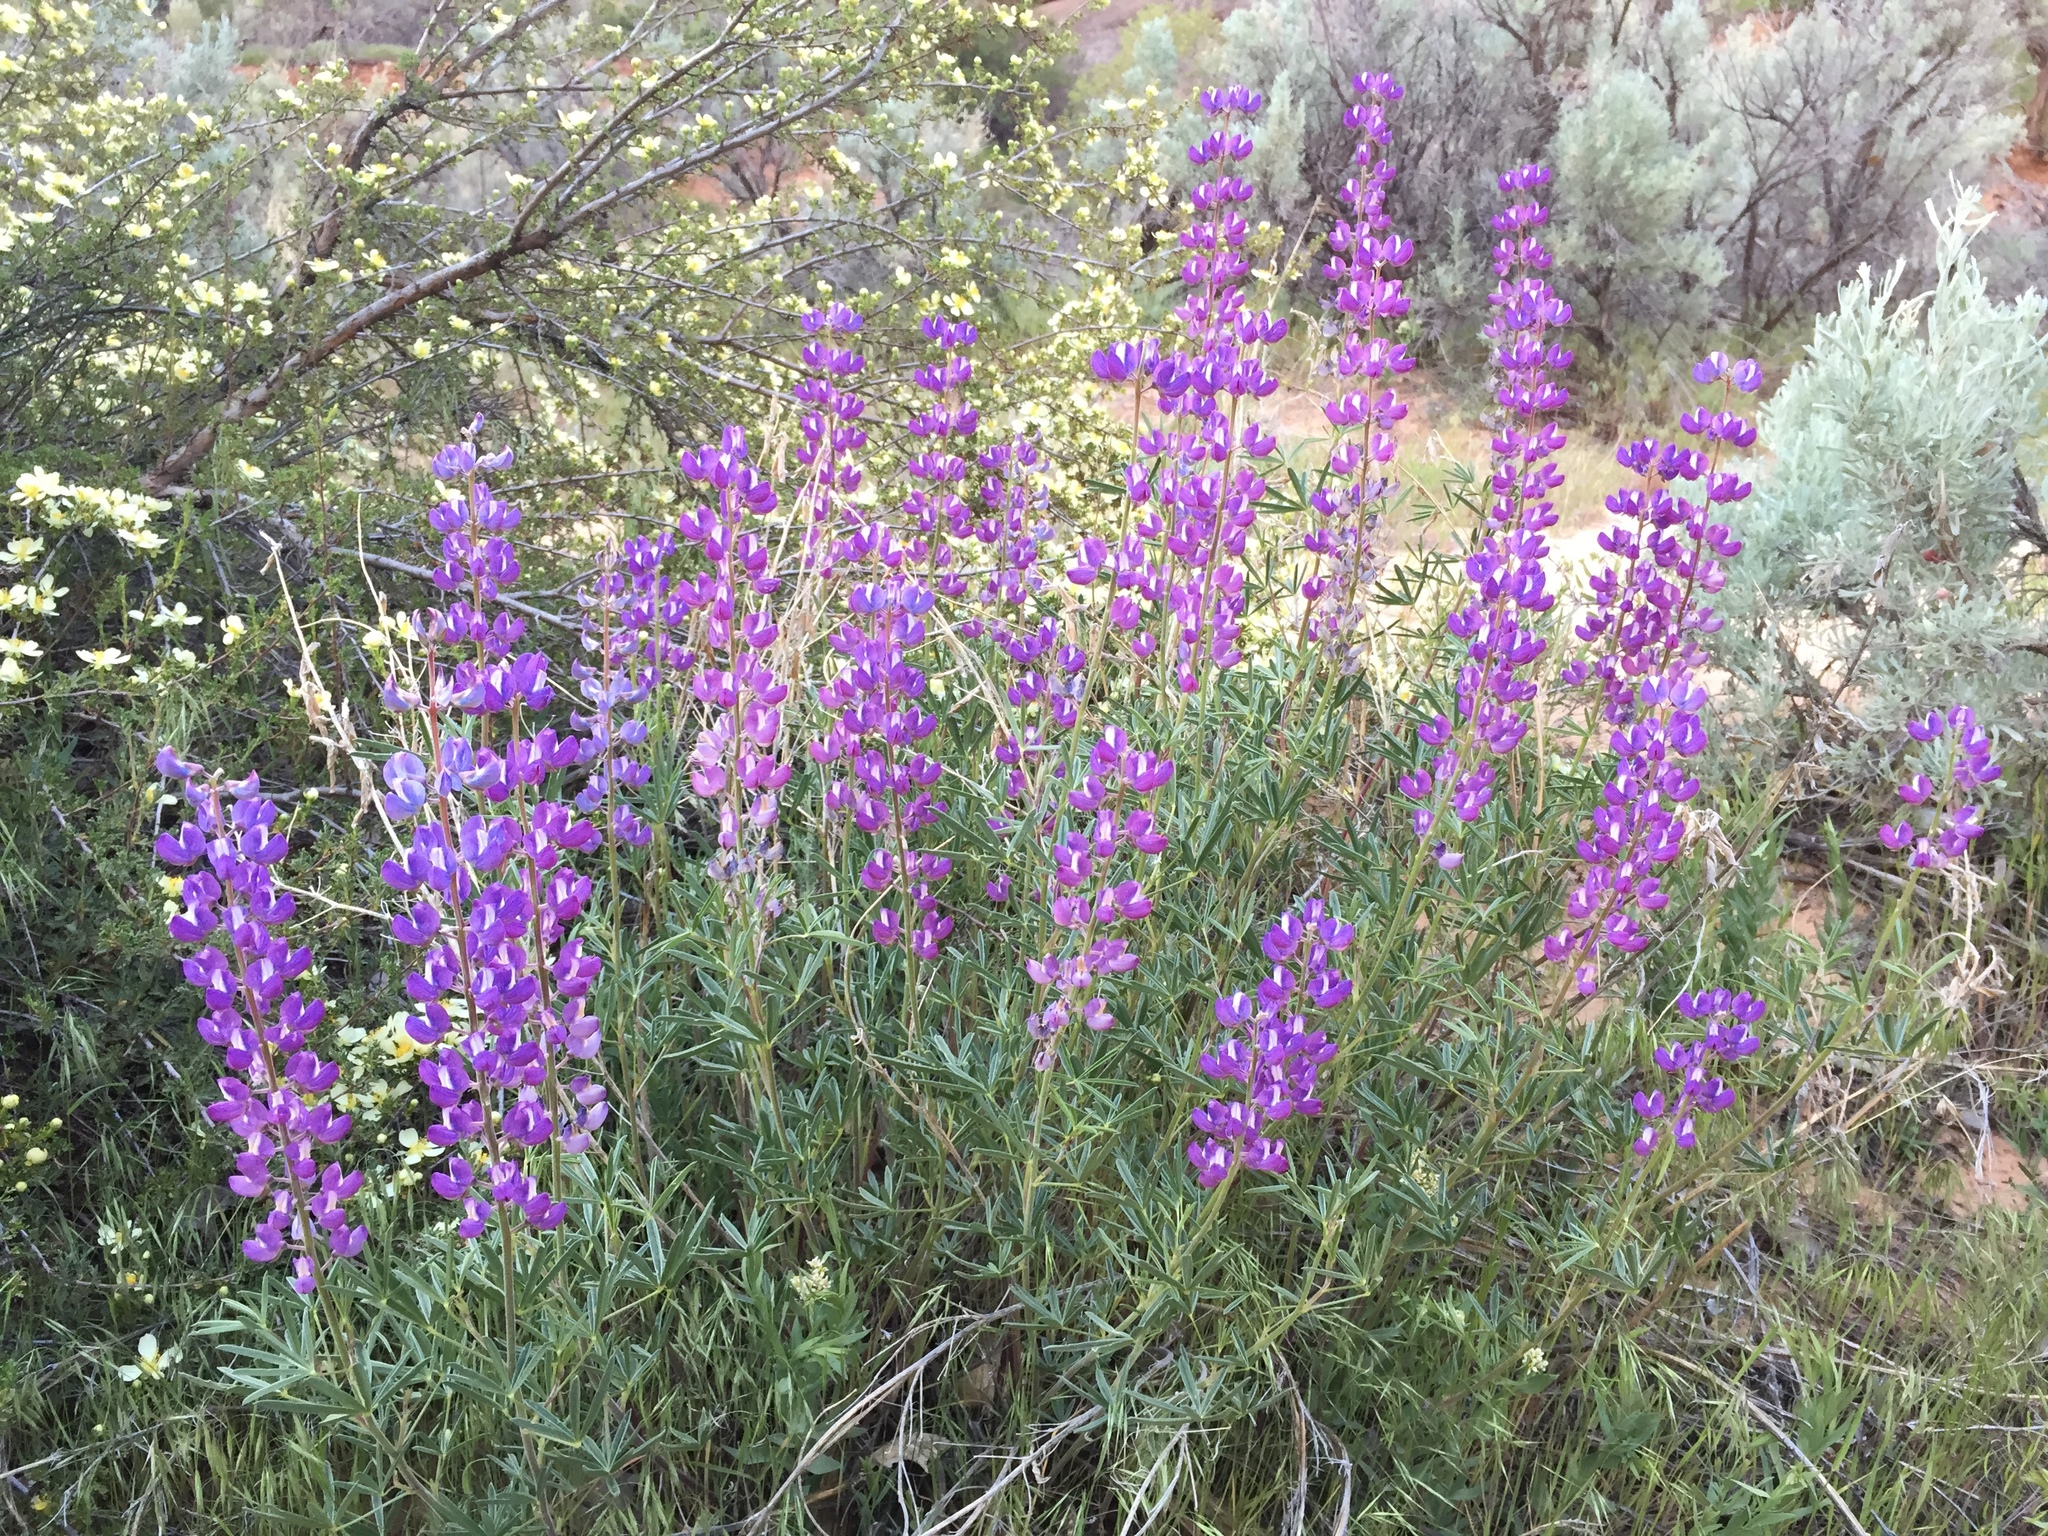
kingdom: Plantae
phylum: Tracheophyta
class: Magnoliopsida
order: Fabales
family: Fabaceae
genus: Lupinus
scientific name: Lupinus argenteus
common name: Silvery lupine
